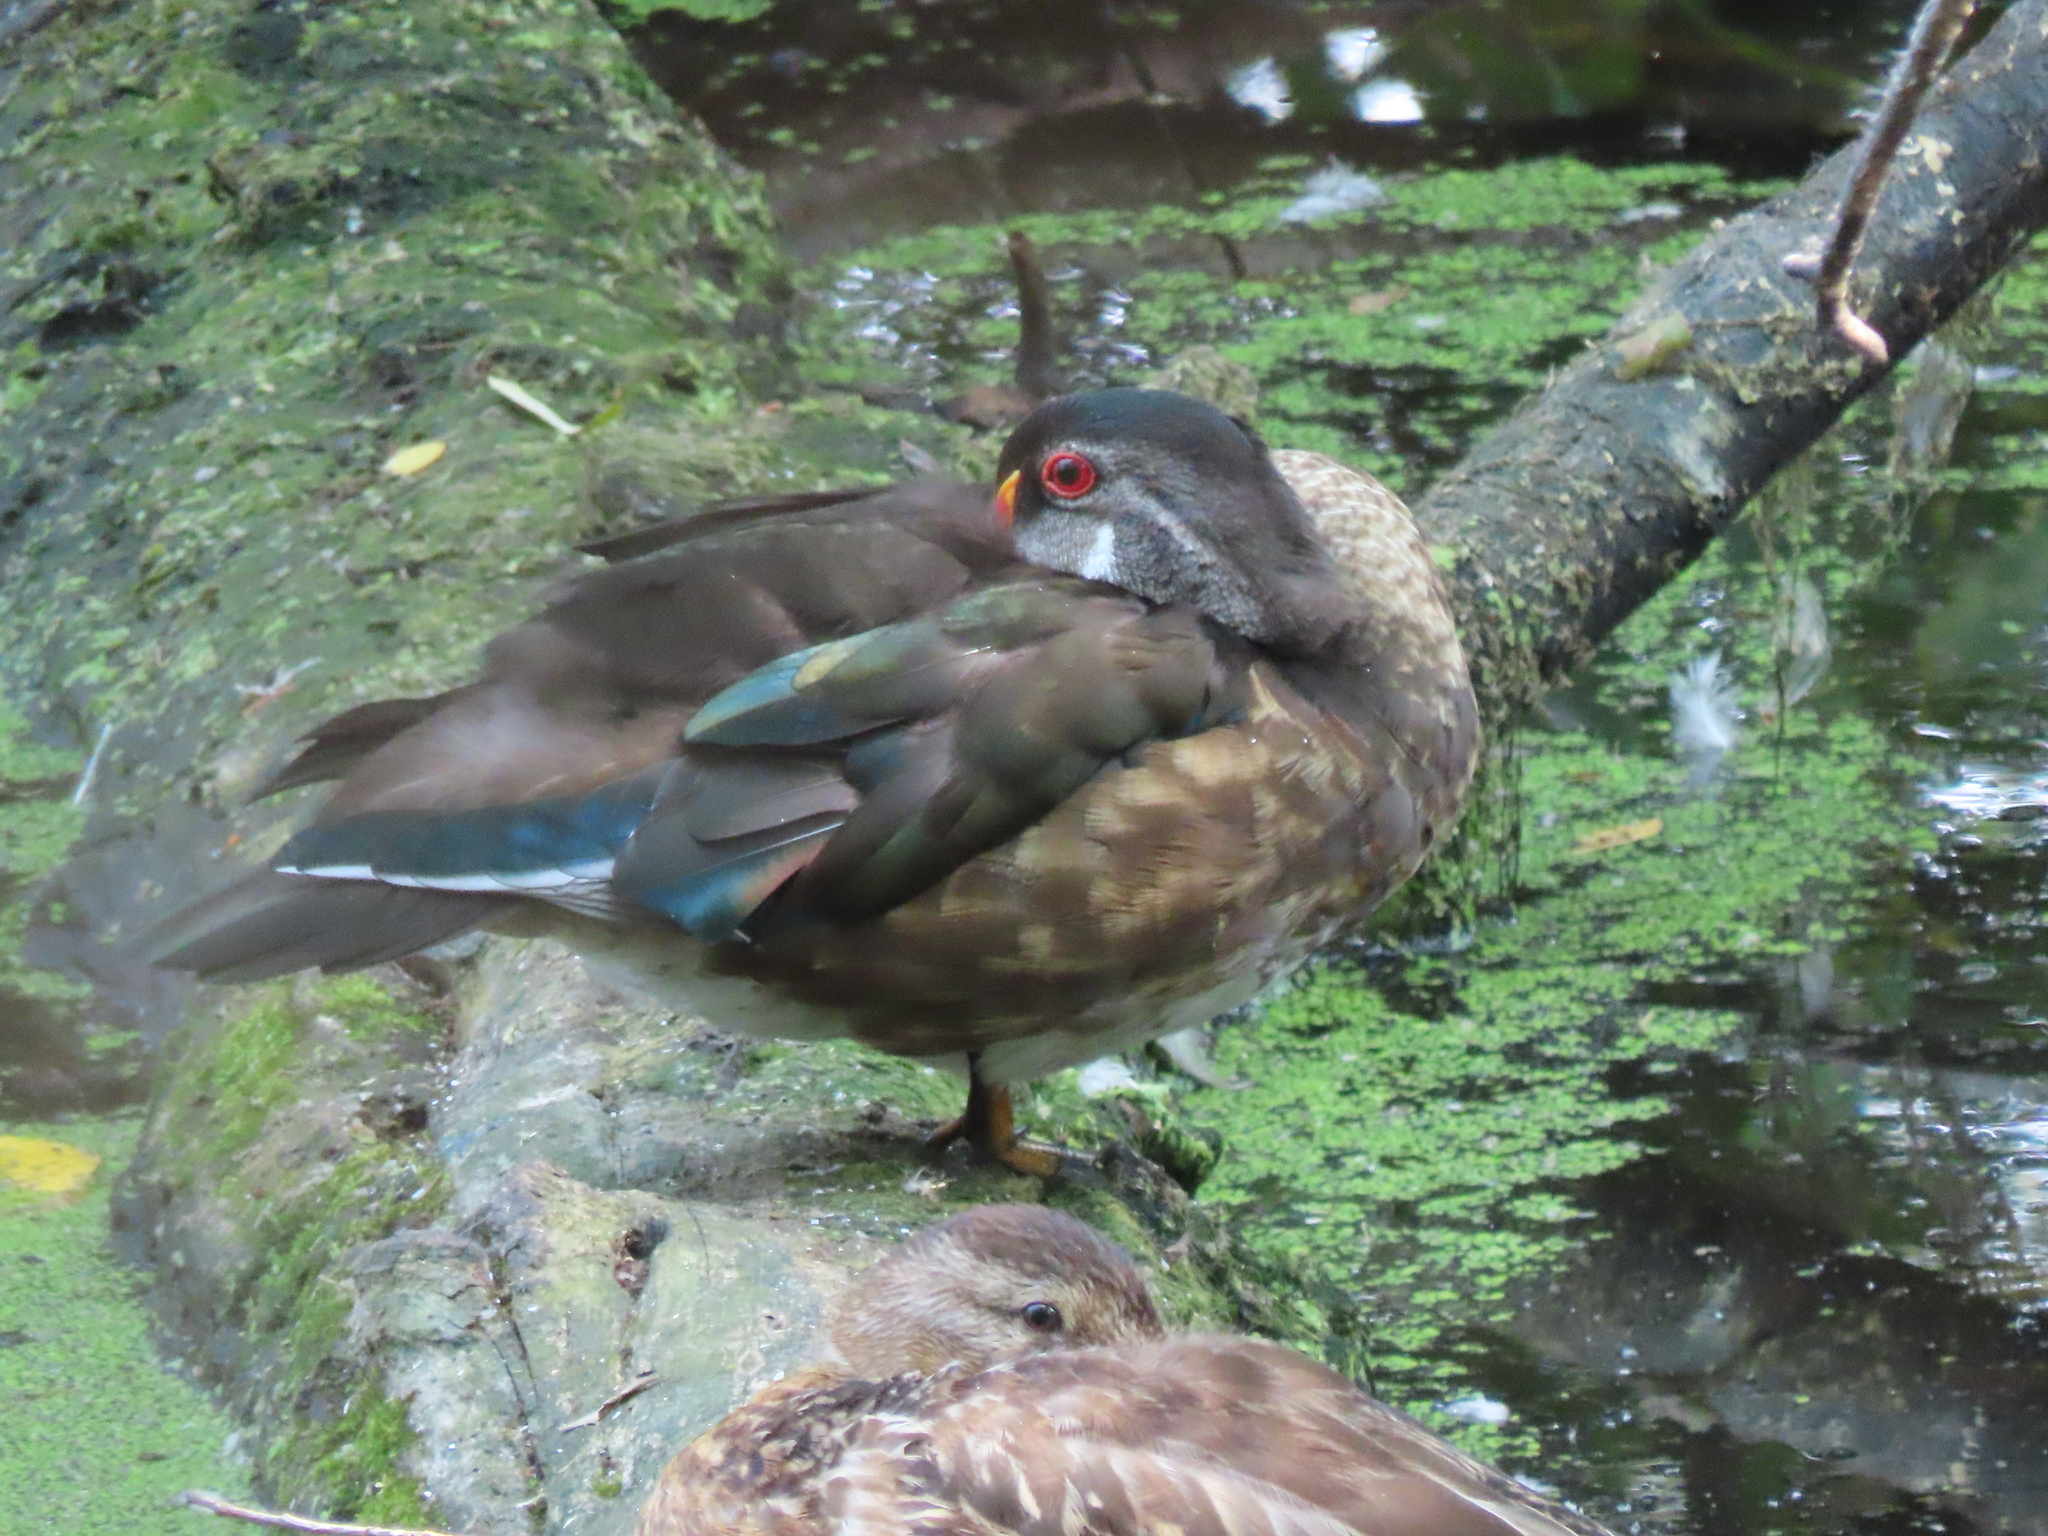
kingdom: Animalia
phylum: Chordata
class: Aves
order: Anseriformes
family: Anatidae
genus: Aix
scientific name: Aix sponsa
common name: Wood duck
